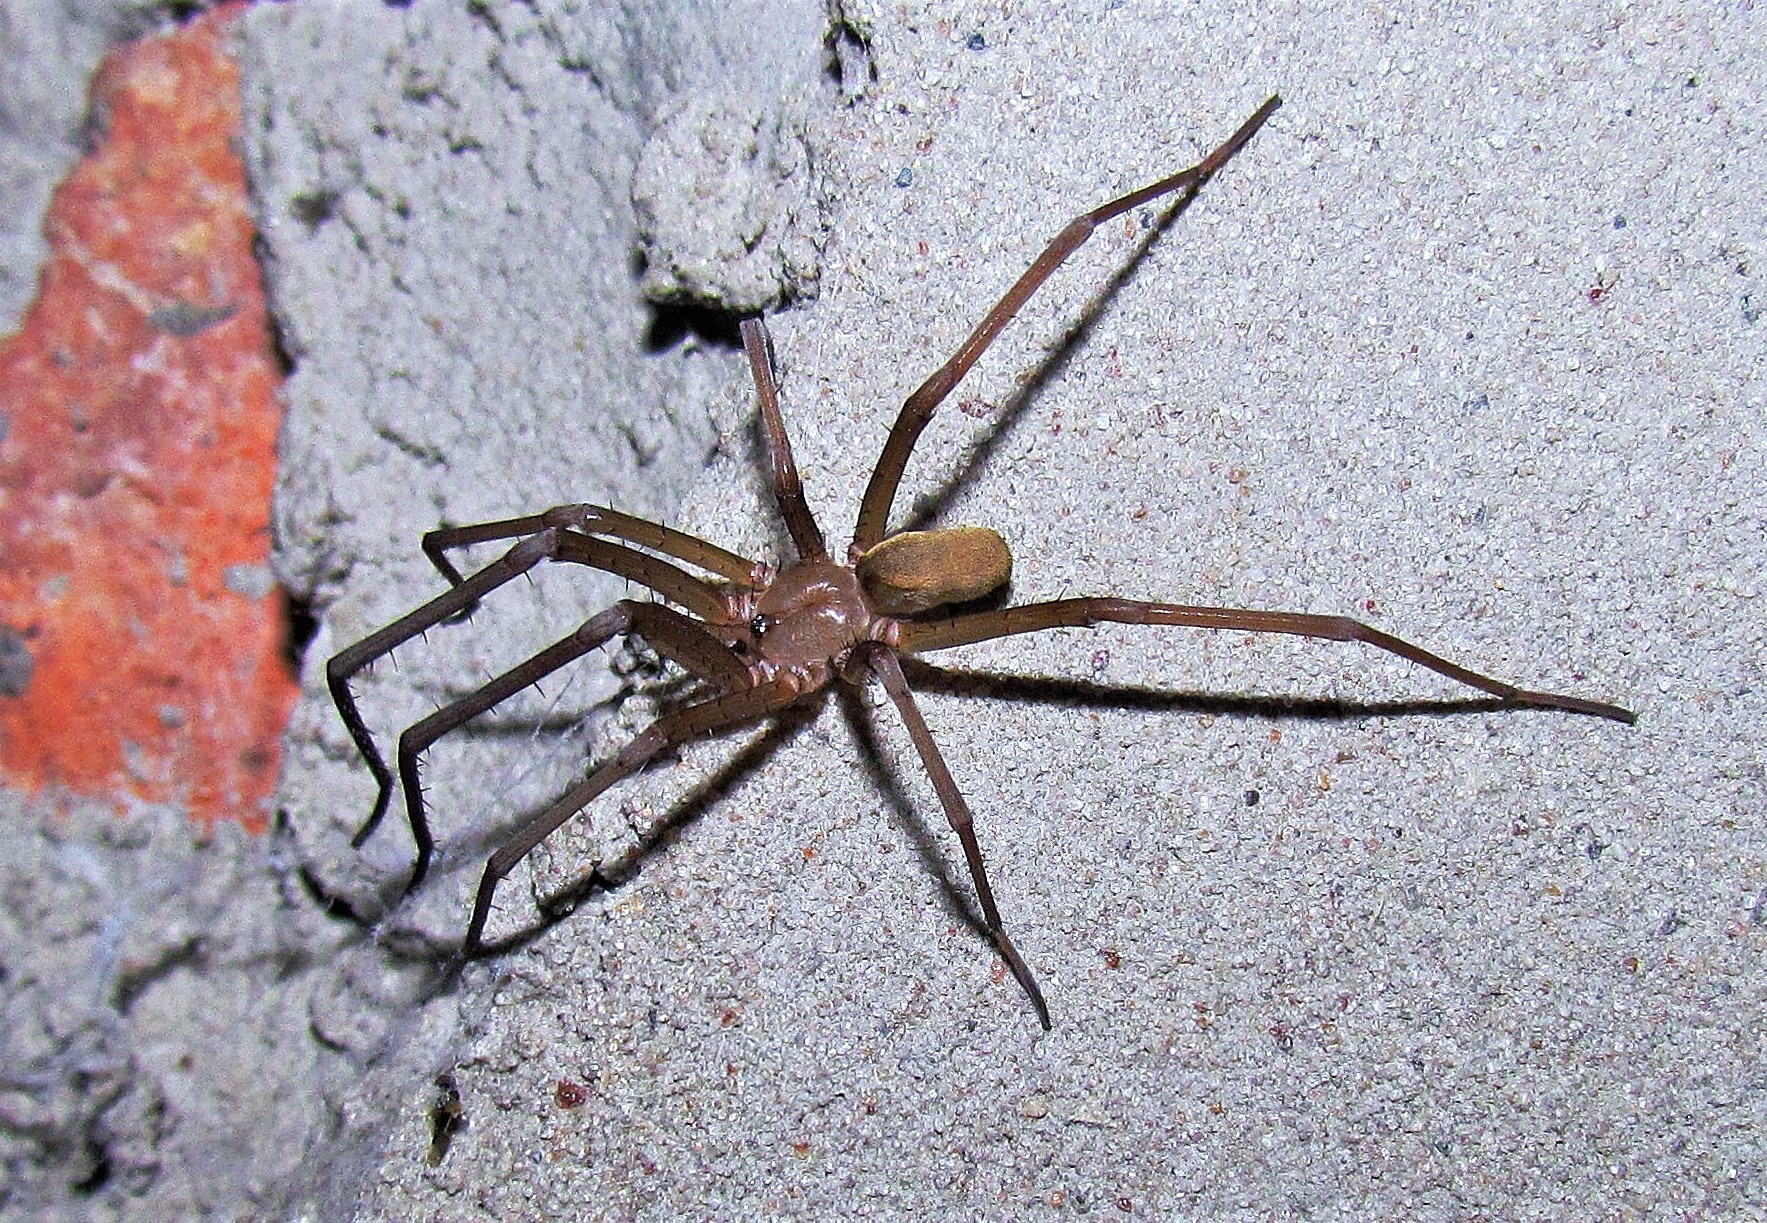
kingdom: Animalia
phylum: Arthropoda
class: Arachnida
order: Araneae
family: Filistatidae
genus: Kukulcania
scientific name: Kukulcania hibernalis
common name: Crevice weaver
